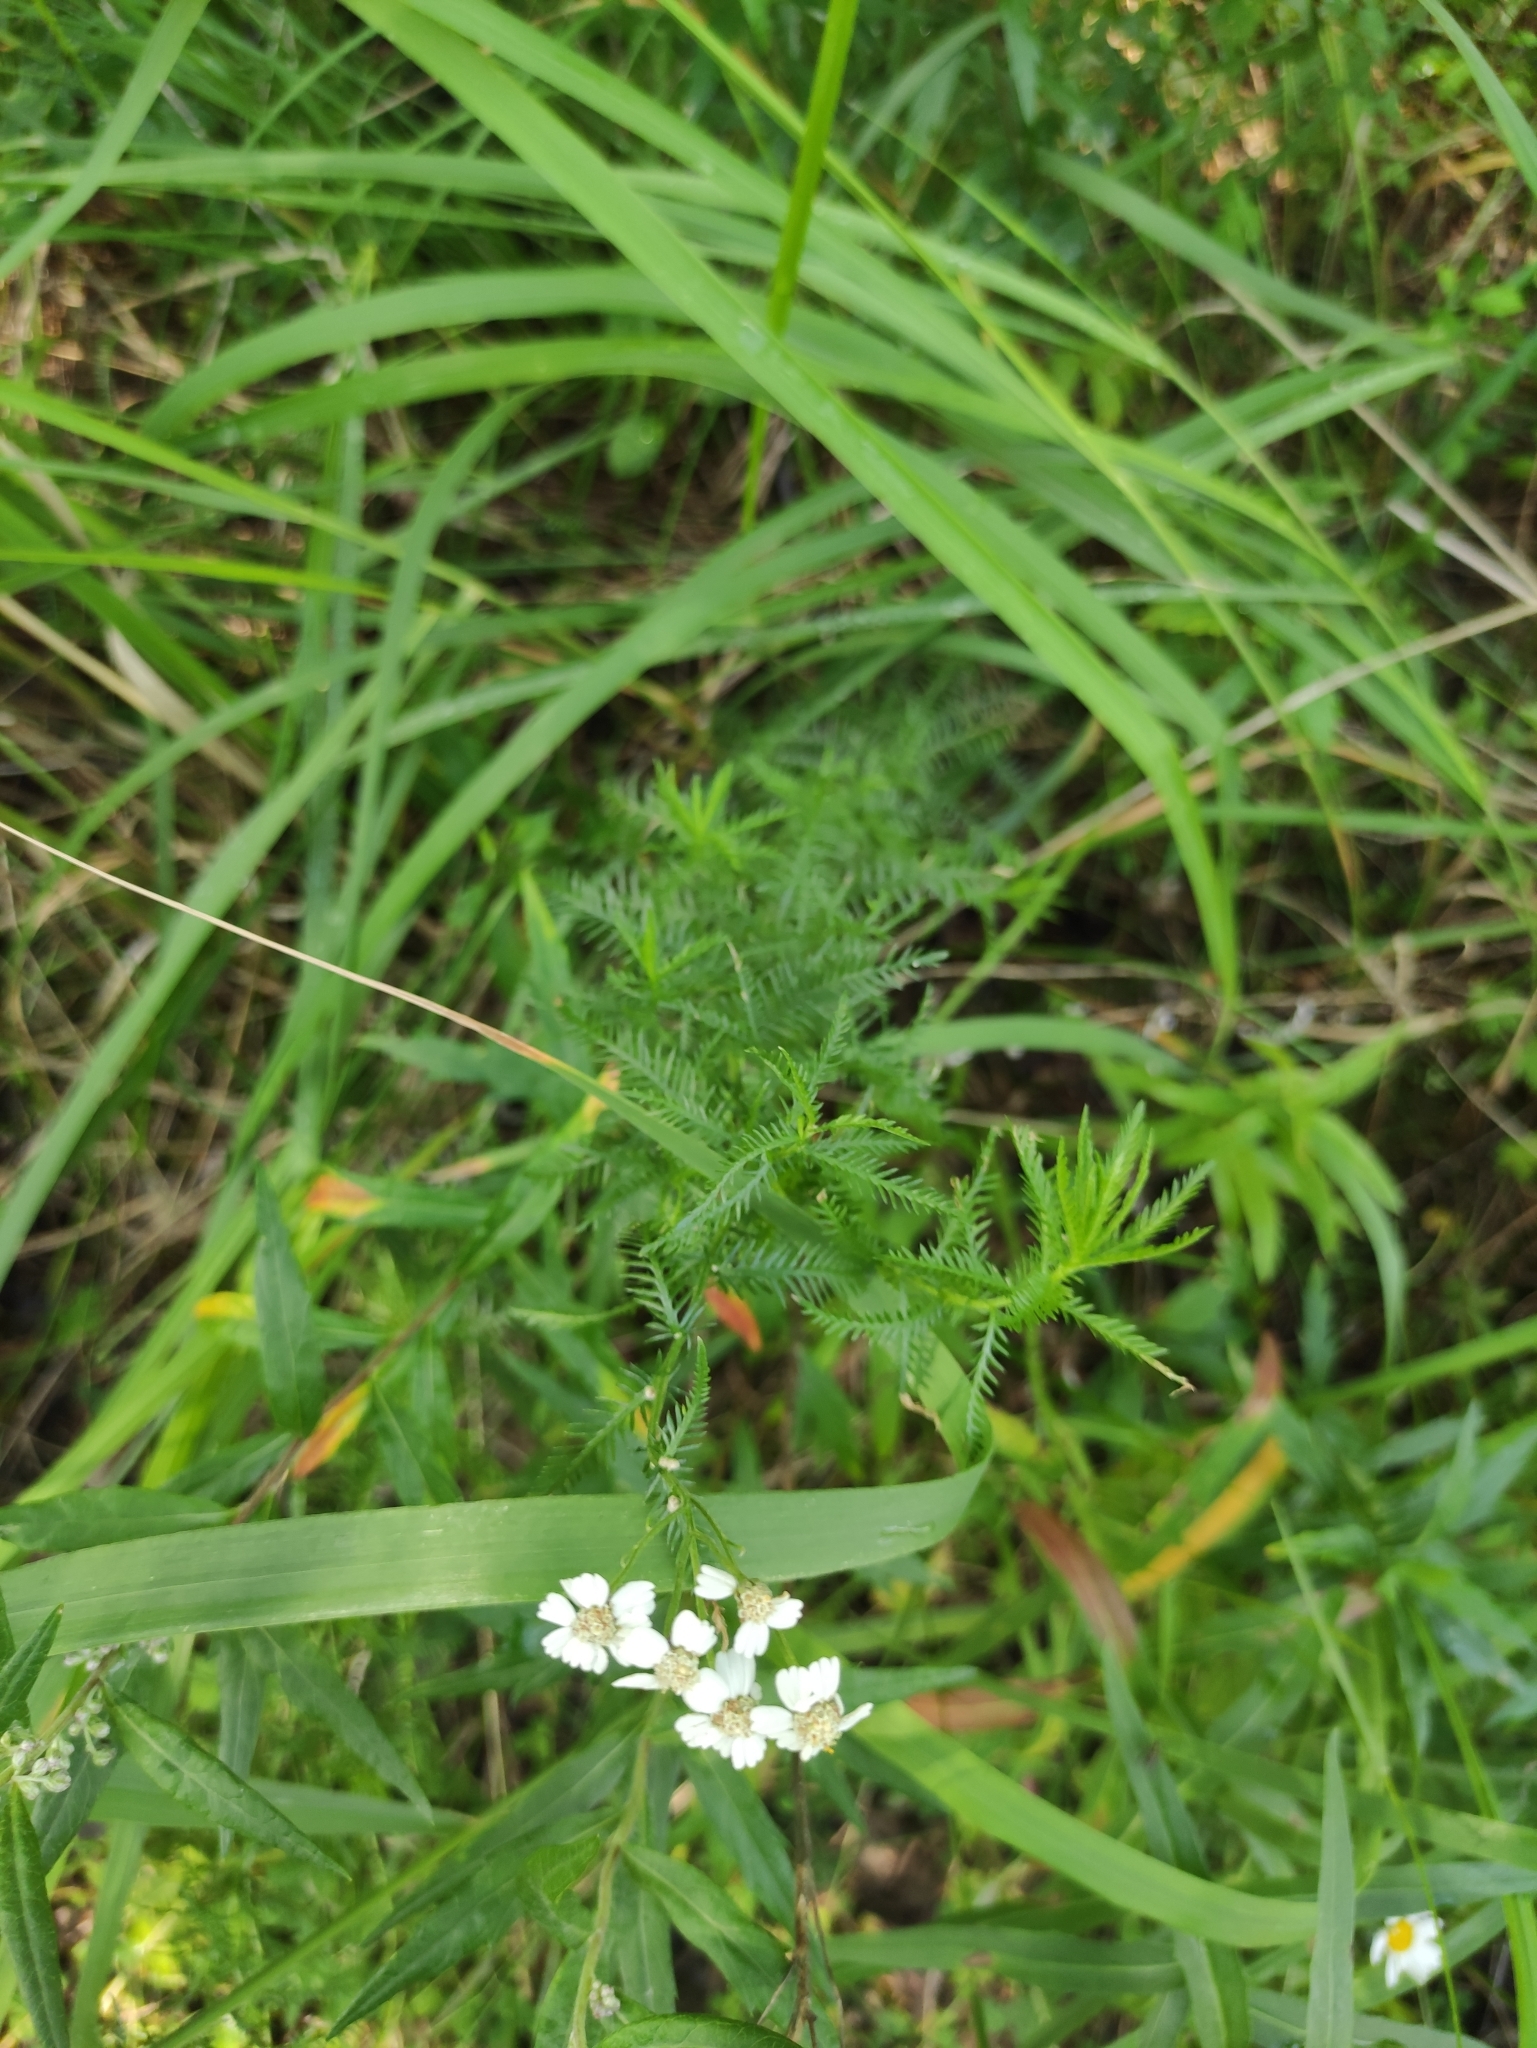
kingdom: Plantae
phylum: Tracheophyta
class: Magnoliopsida
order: Asterales
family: Asteraceae
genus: Achillea
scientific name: Achillea impatiens
